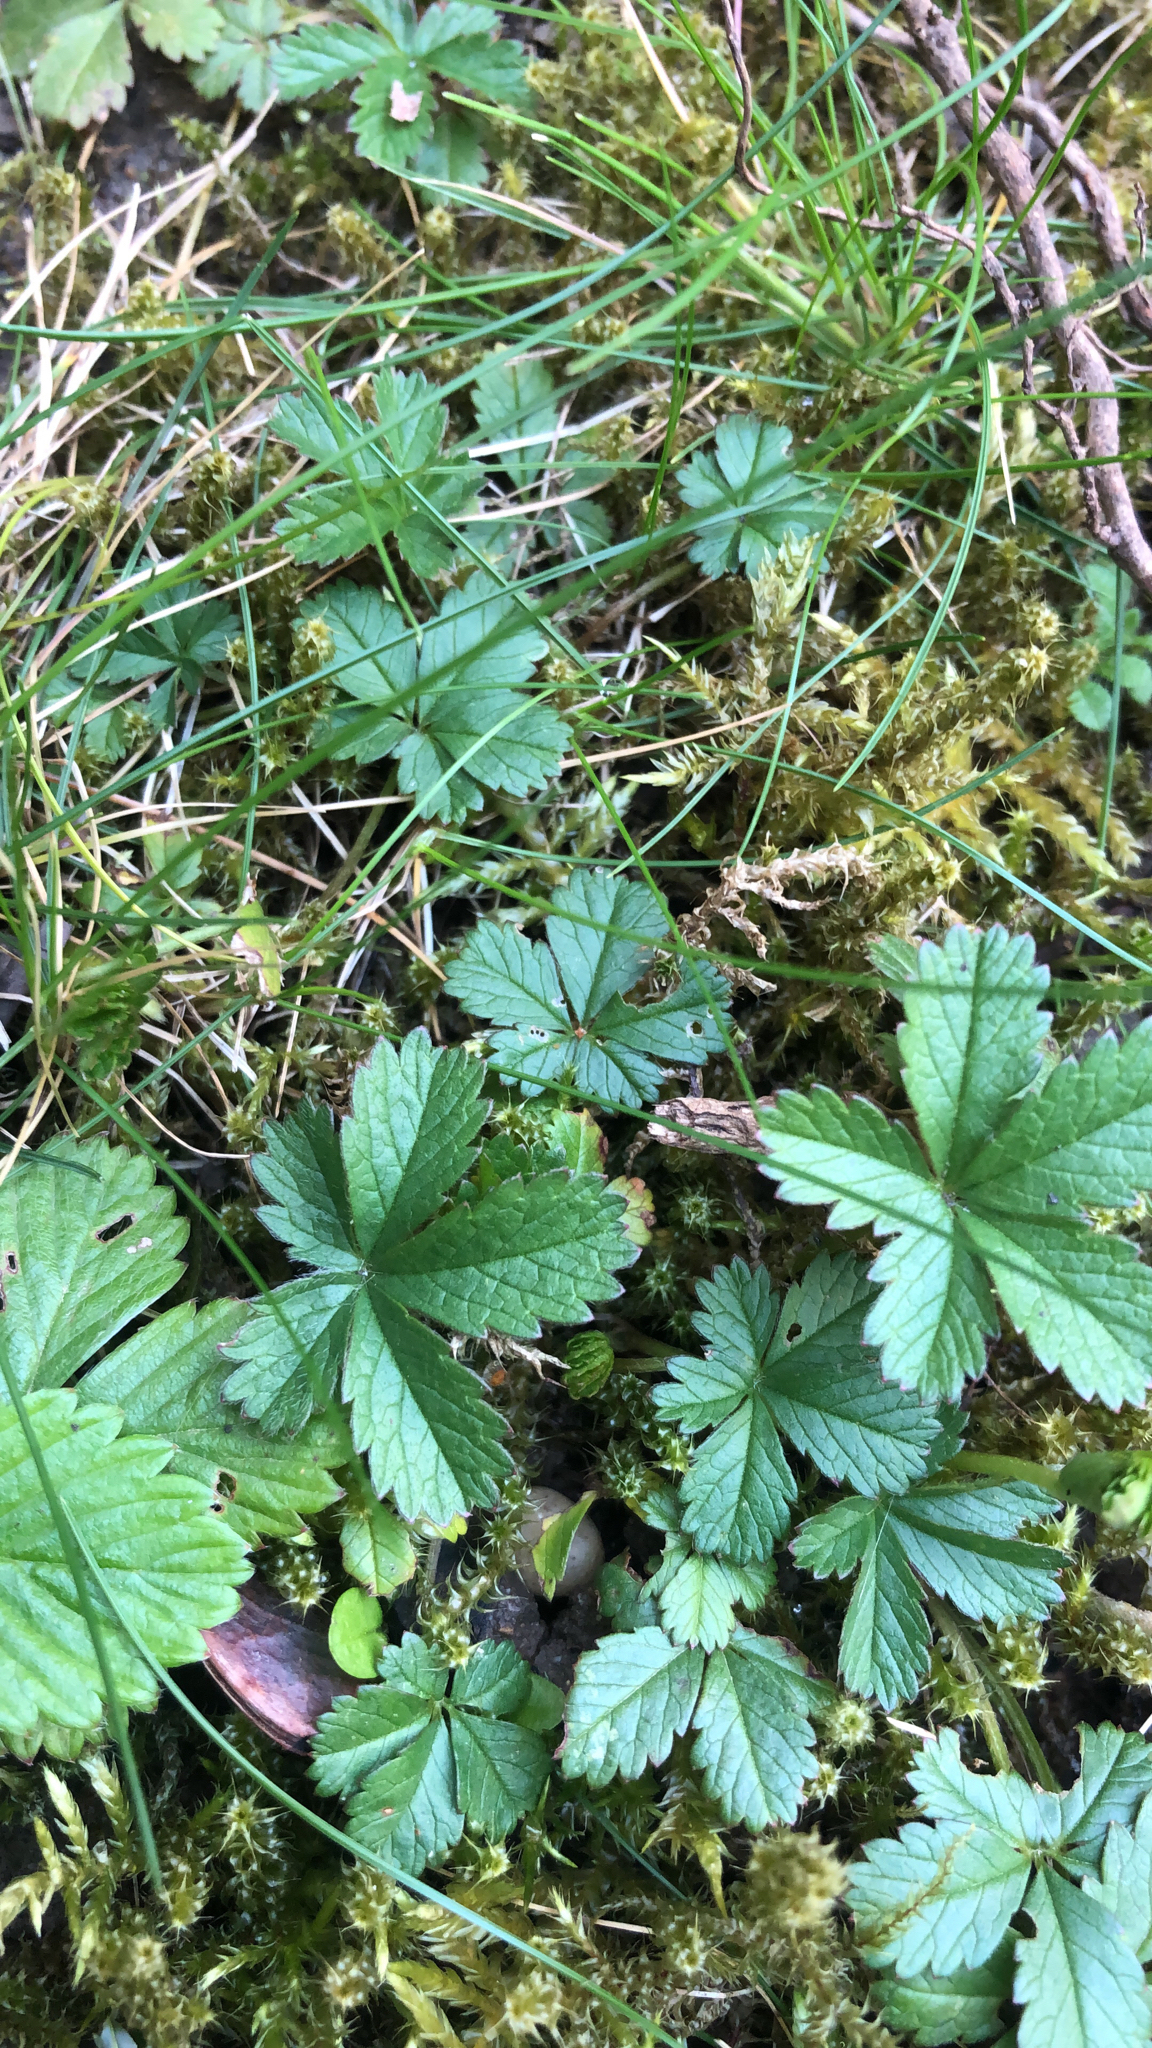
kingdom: Plantae
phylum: Tracheophyta
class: Magnoliopsida
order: Rosales
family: Rosaceae
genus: Potentilla
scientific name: Potentilla reptans
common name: Creeping cinquefoil
